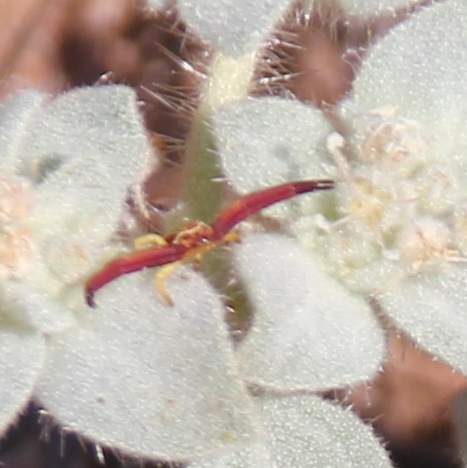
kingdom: Animalia
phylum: Arthropoda
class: Arachnida
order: Araneae
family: Thomisidae
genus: Misumenoides
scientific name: Misumenoides formosipes
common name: White-banded crab spider
